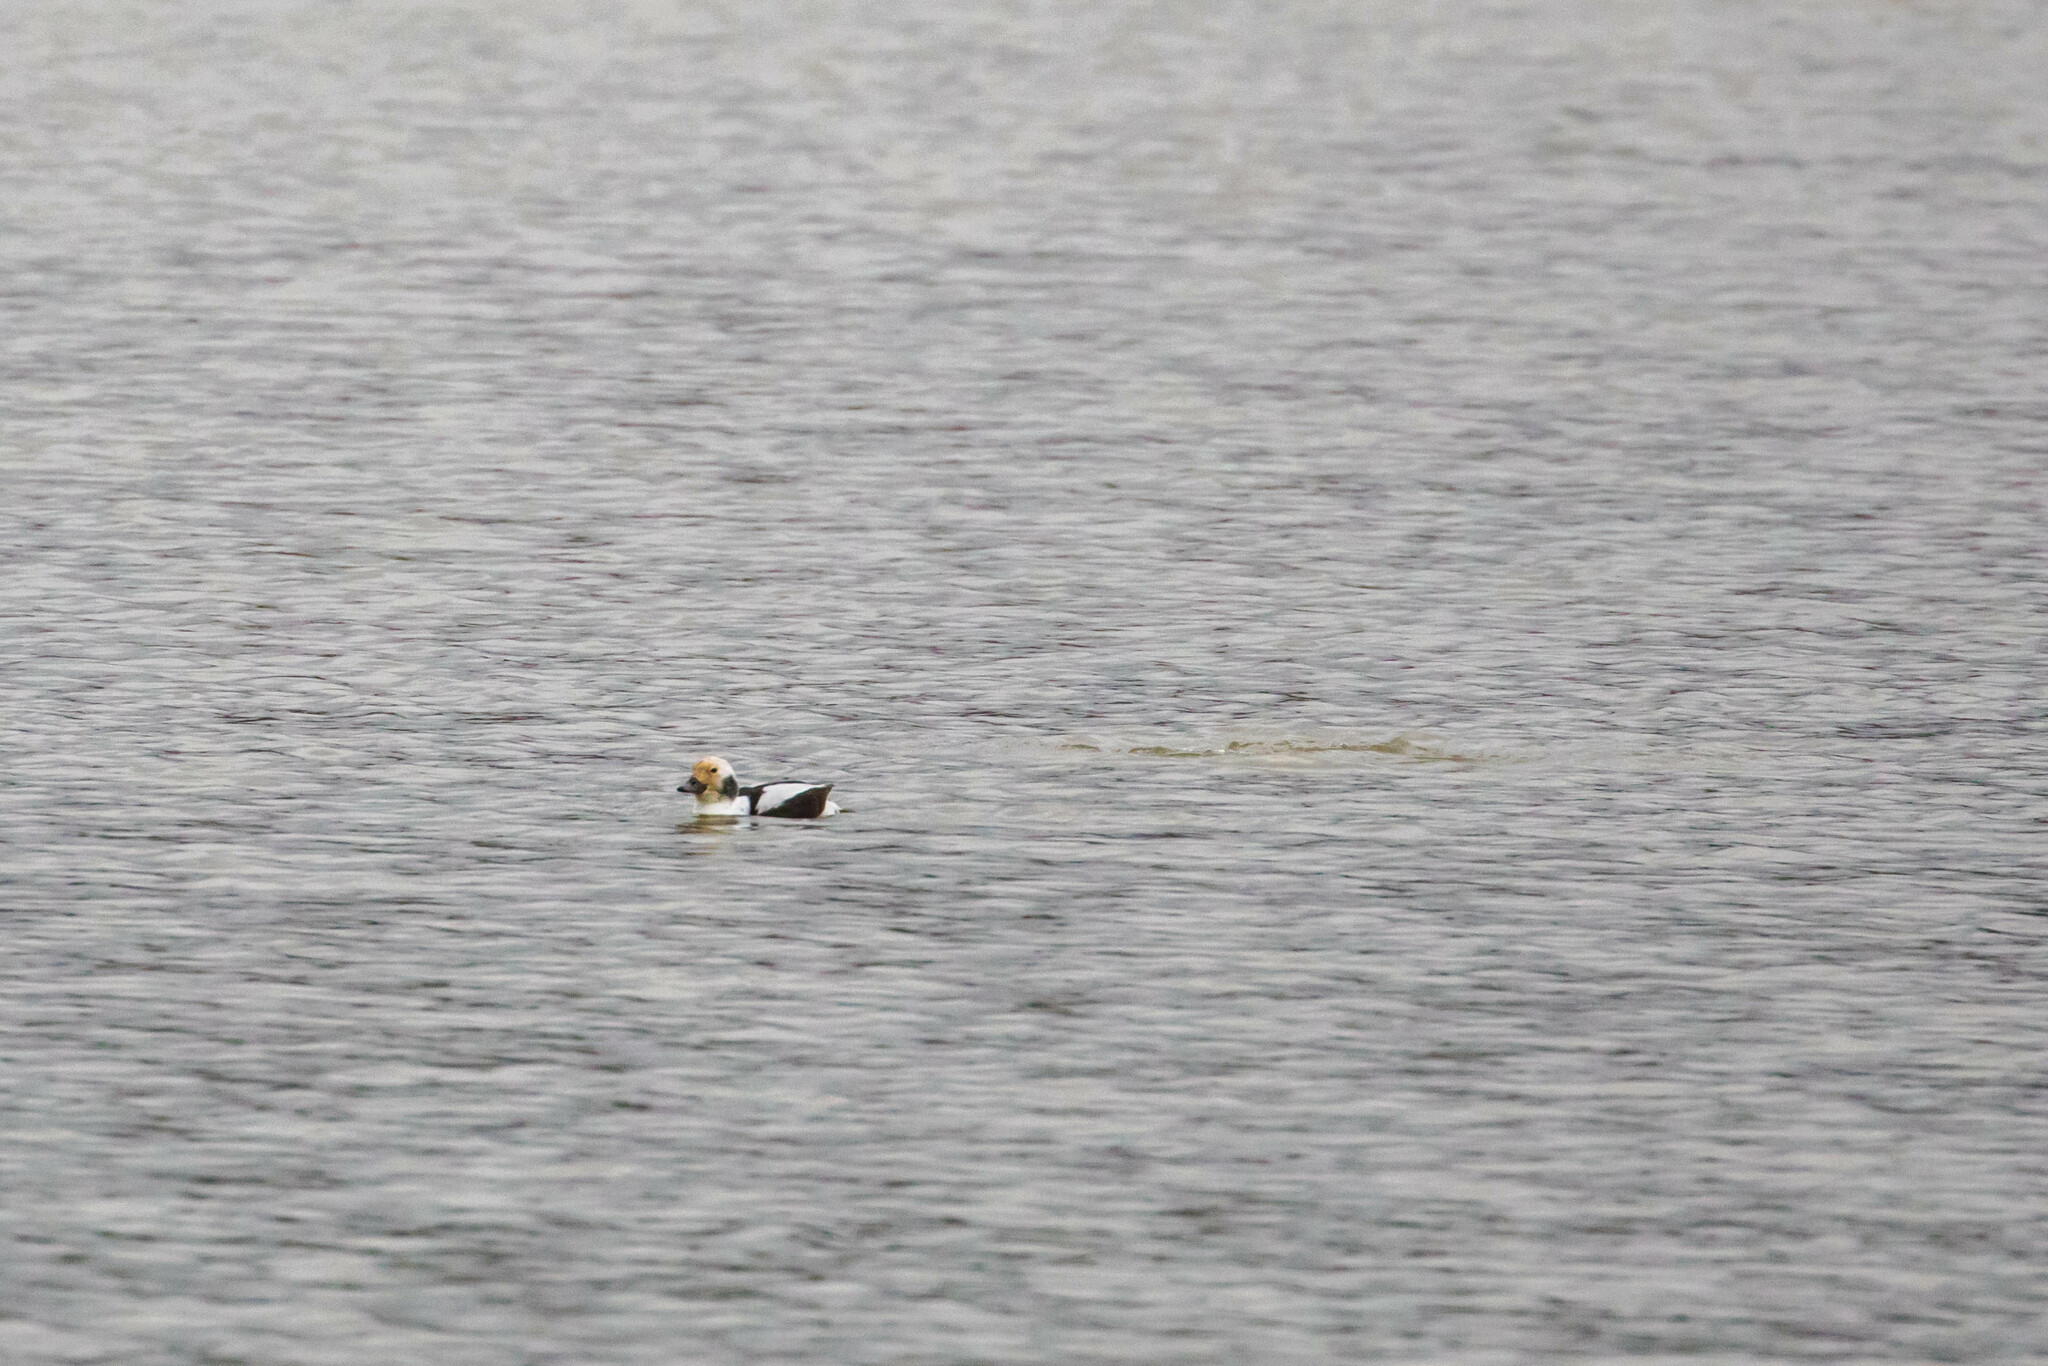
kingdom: Animalia
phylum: Chordata
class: Aves
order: Anseriformes
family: Anatidae
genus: Clangula
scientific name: Clangula hyemalis
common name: Long-tailed duck
